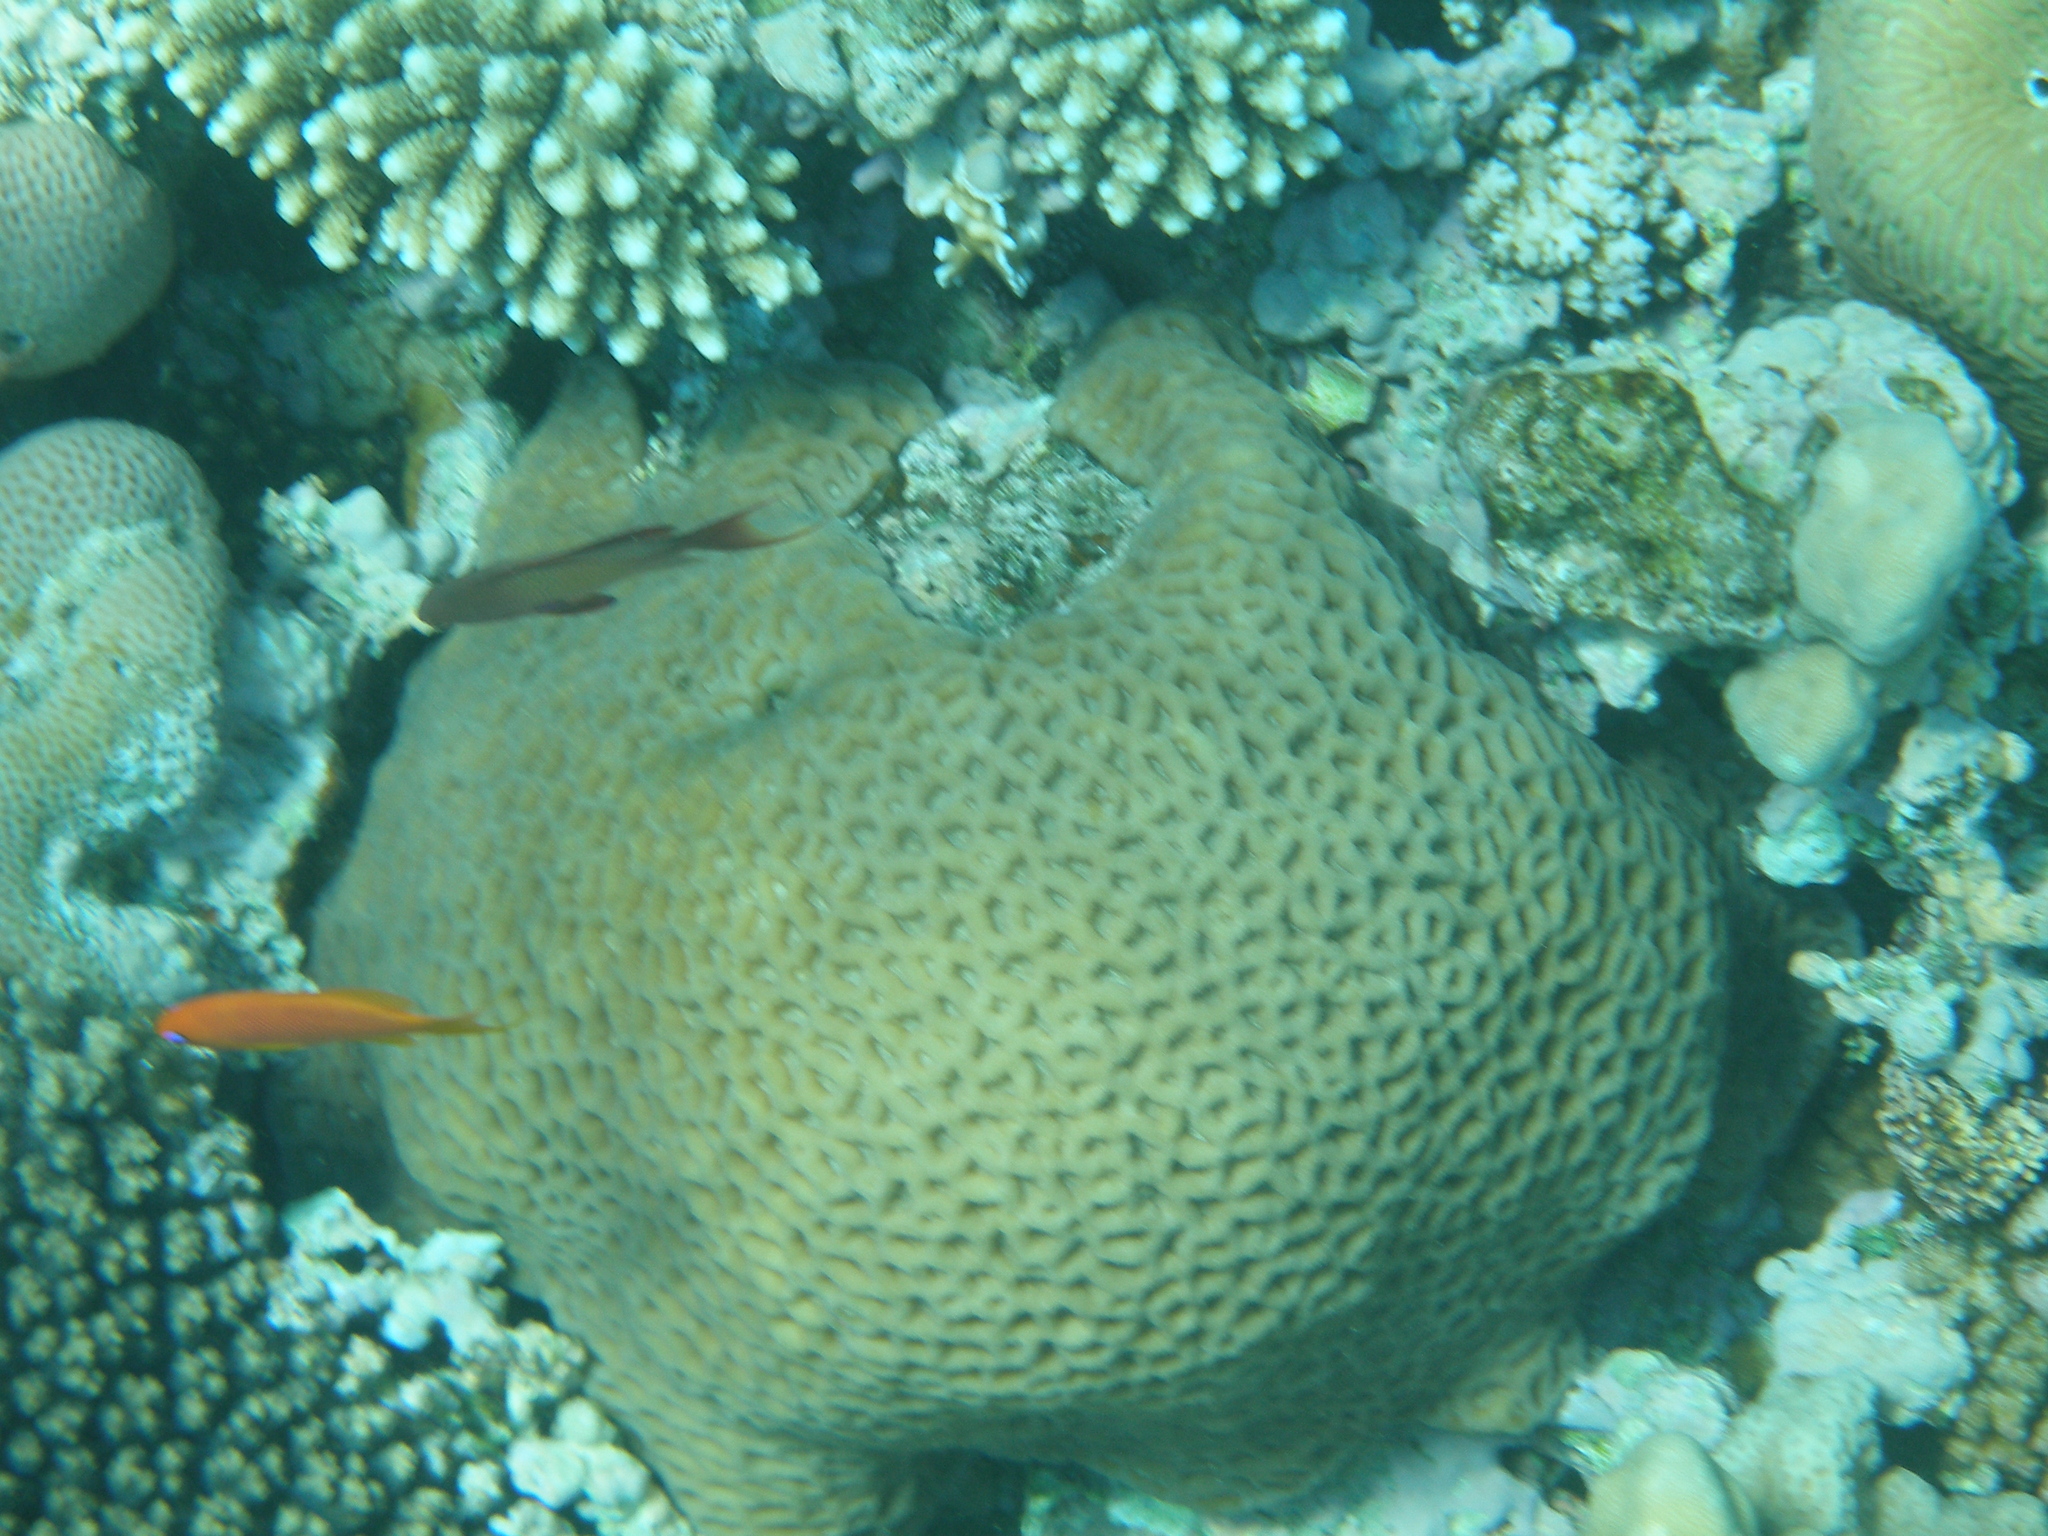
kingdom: Animalia
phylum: Cnidaria
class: Anthozoa
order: Scleractinia
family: Merulinidae
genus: Goniastrea
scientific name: Goniastrea thecata
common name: Lesser star coral
